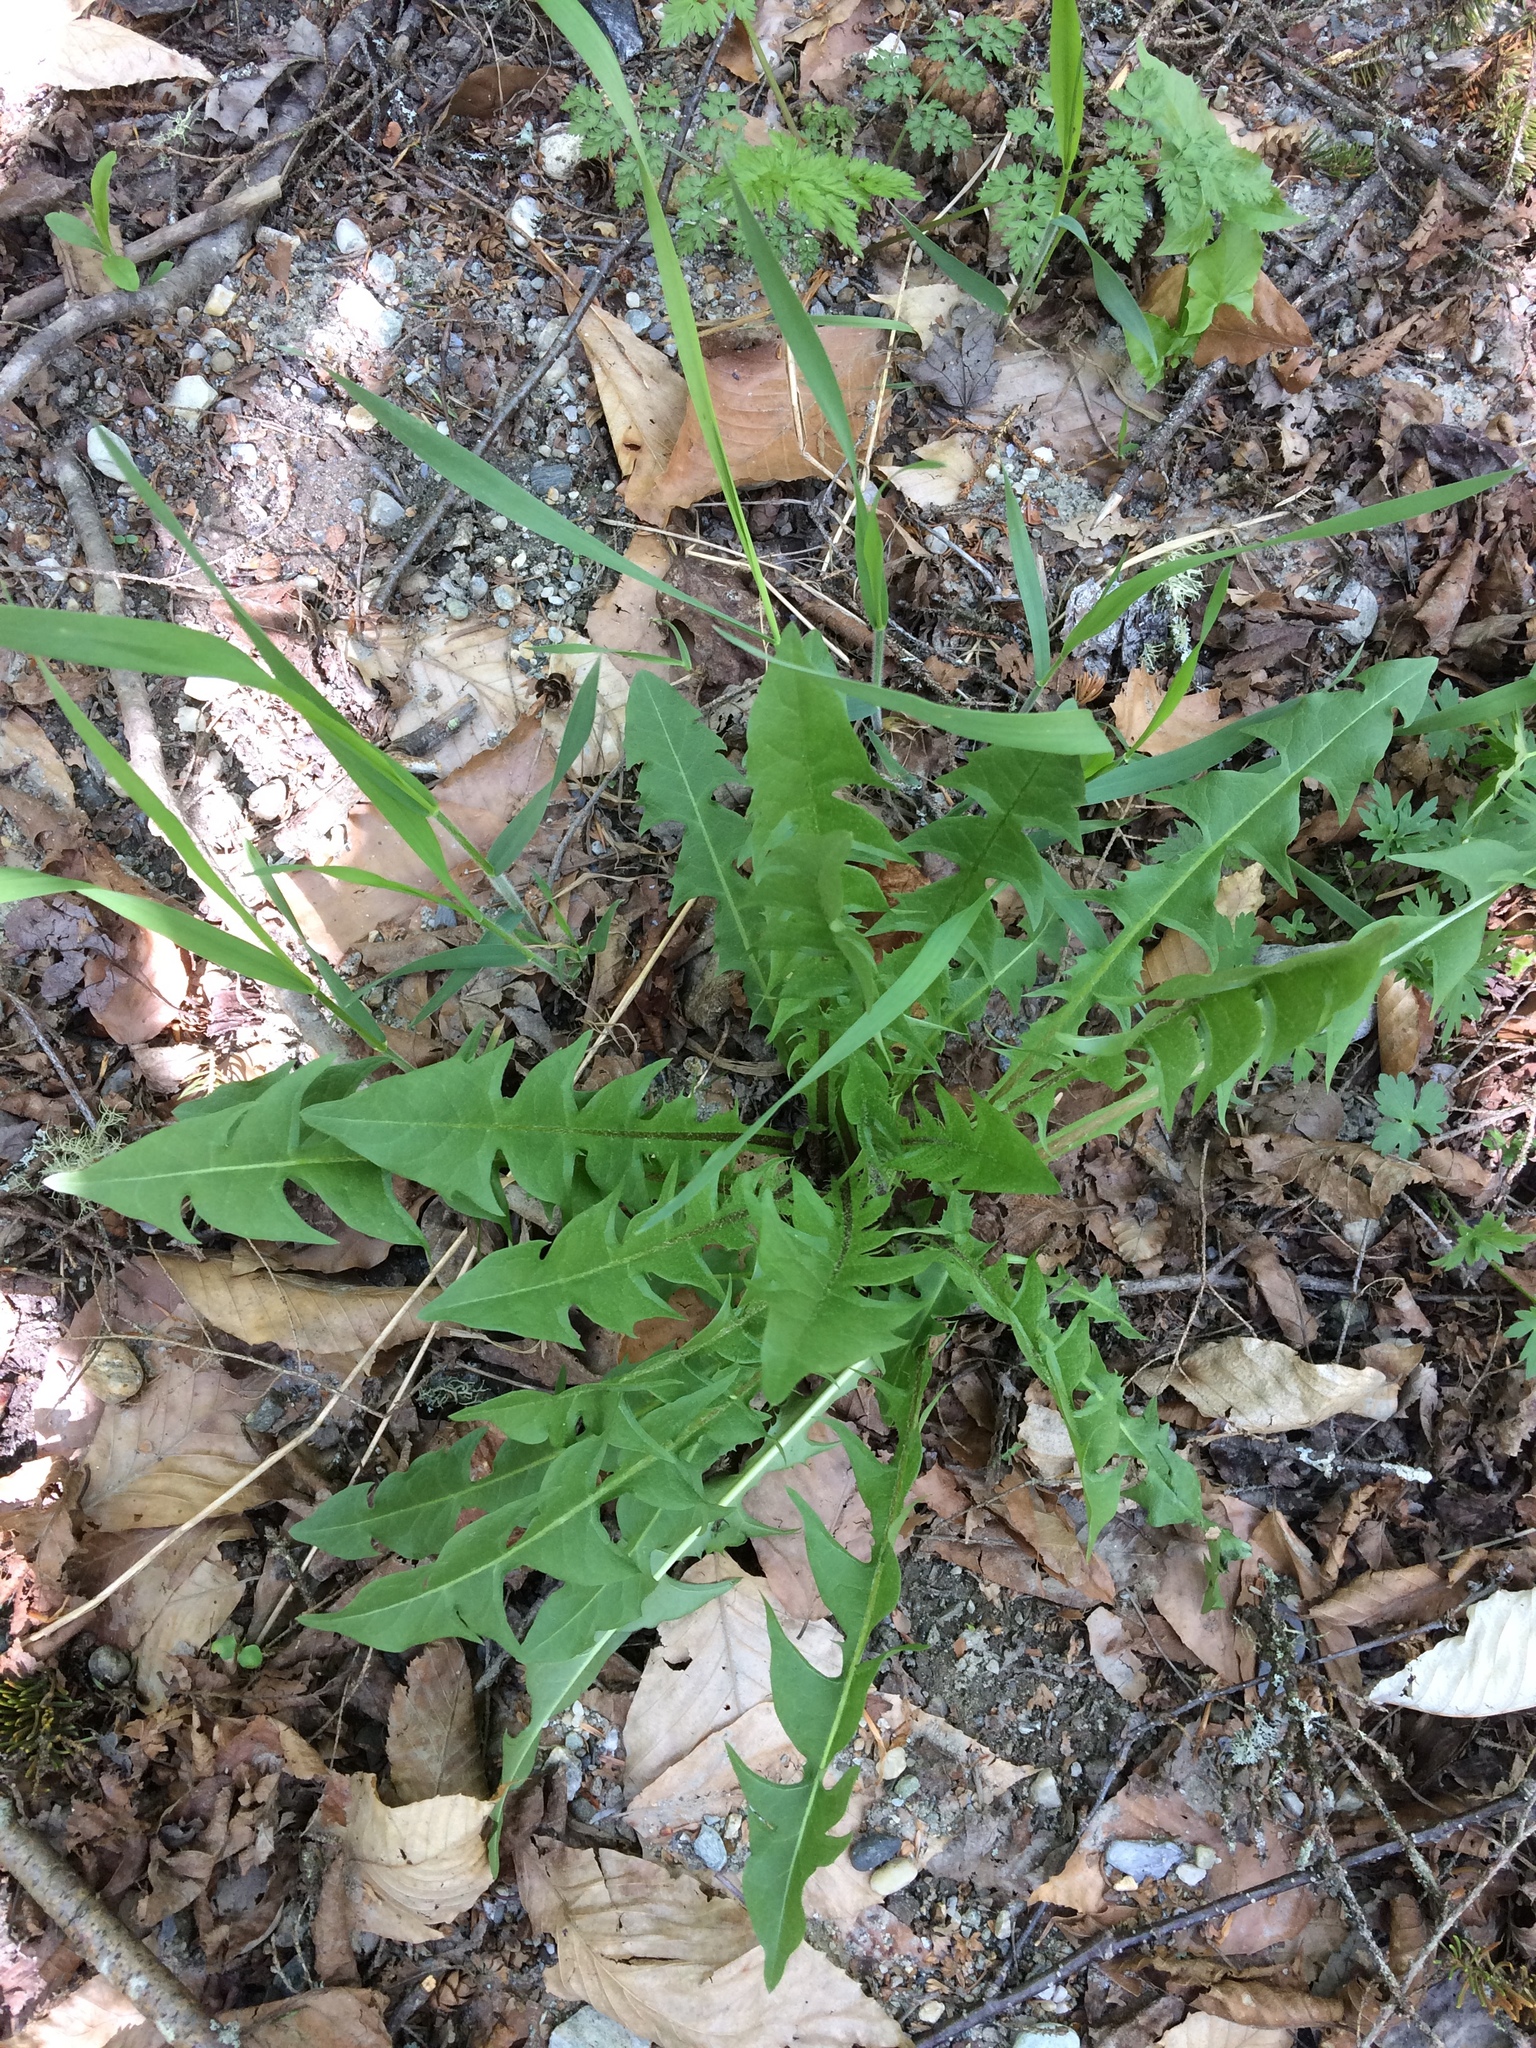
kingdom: Plantae
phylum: Tracheophyta
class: Magnoliopsida
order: Asterales
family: Asteraceae
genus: Taraxacum
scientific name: Taraxacum officinale
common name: Common dandelion
